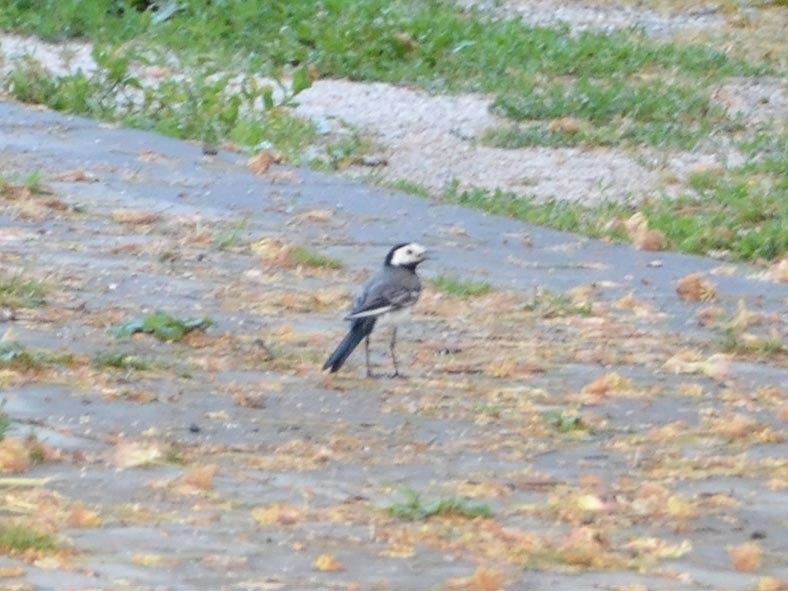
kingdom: Animalia
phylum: Chordata
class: Aves
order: Passeriformes
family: Motacillidae
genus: Motacilla
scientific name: Motacilla alba
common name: White wagtail
